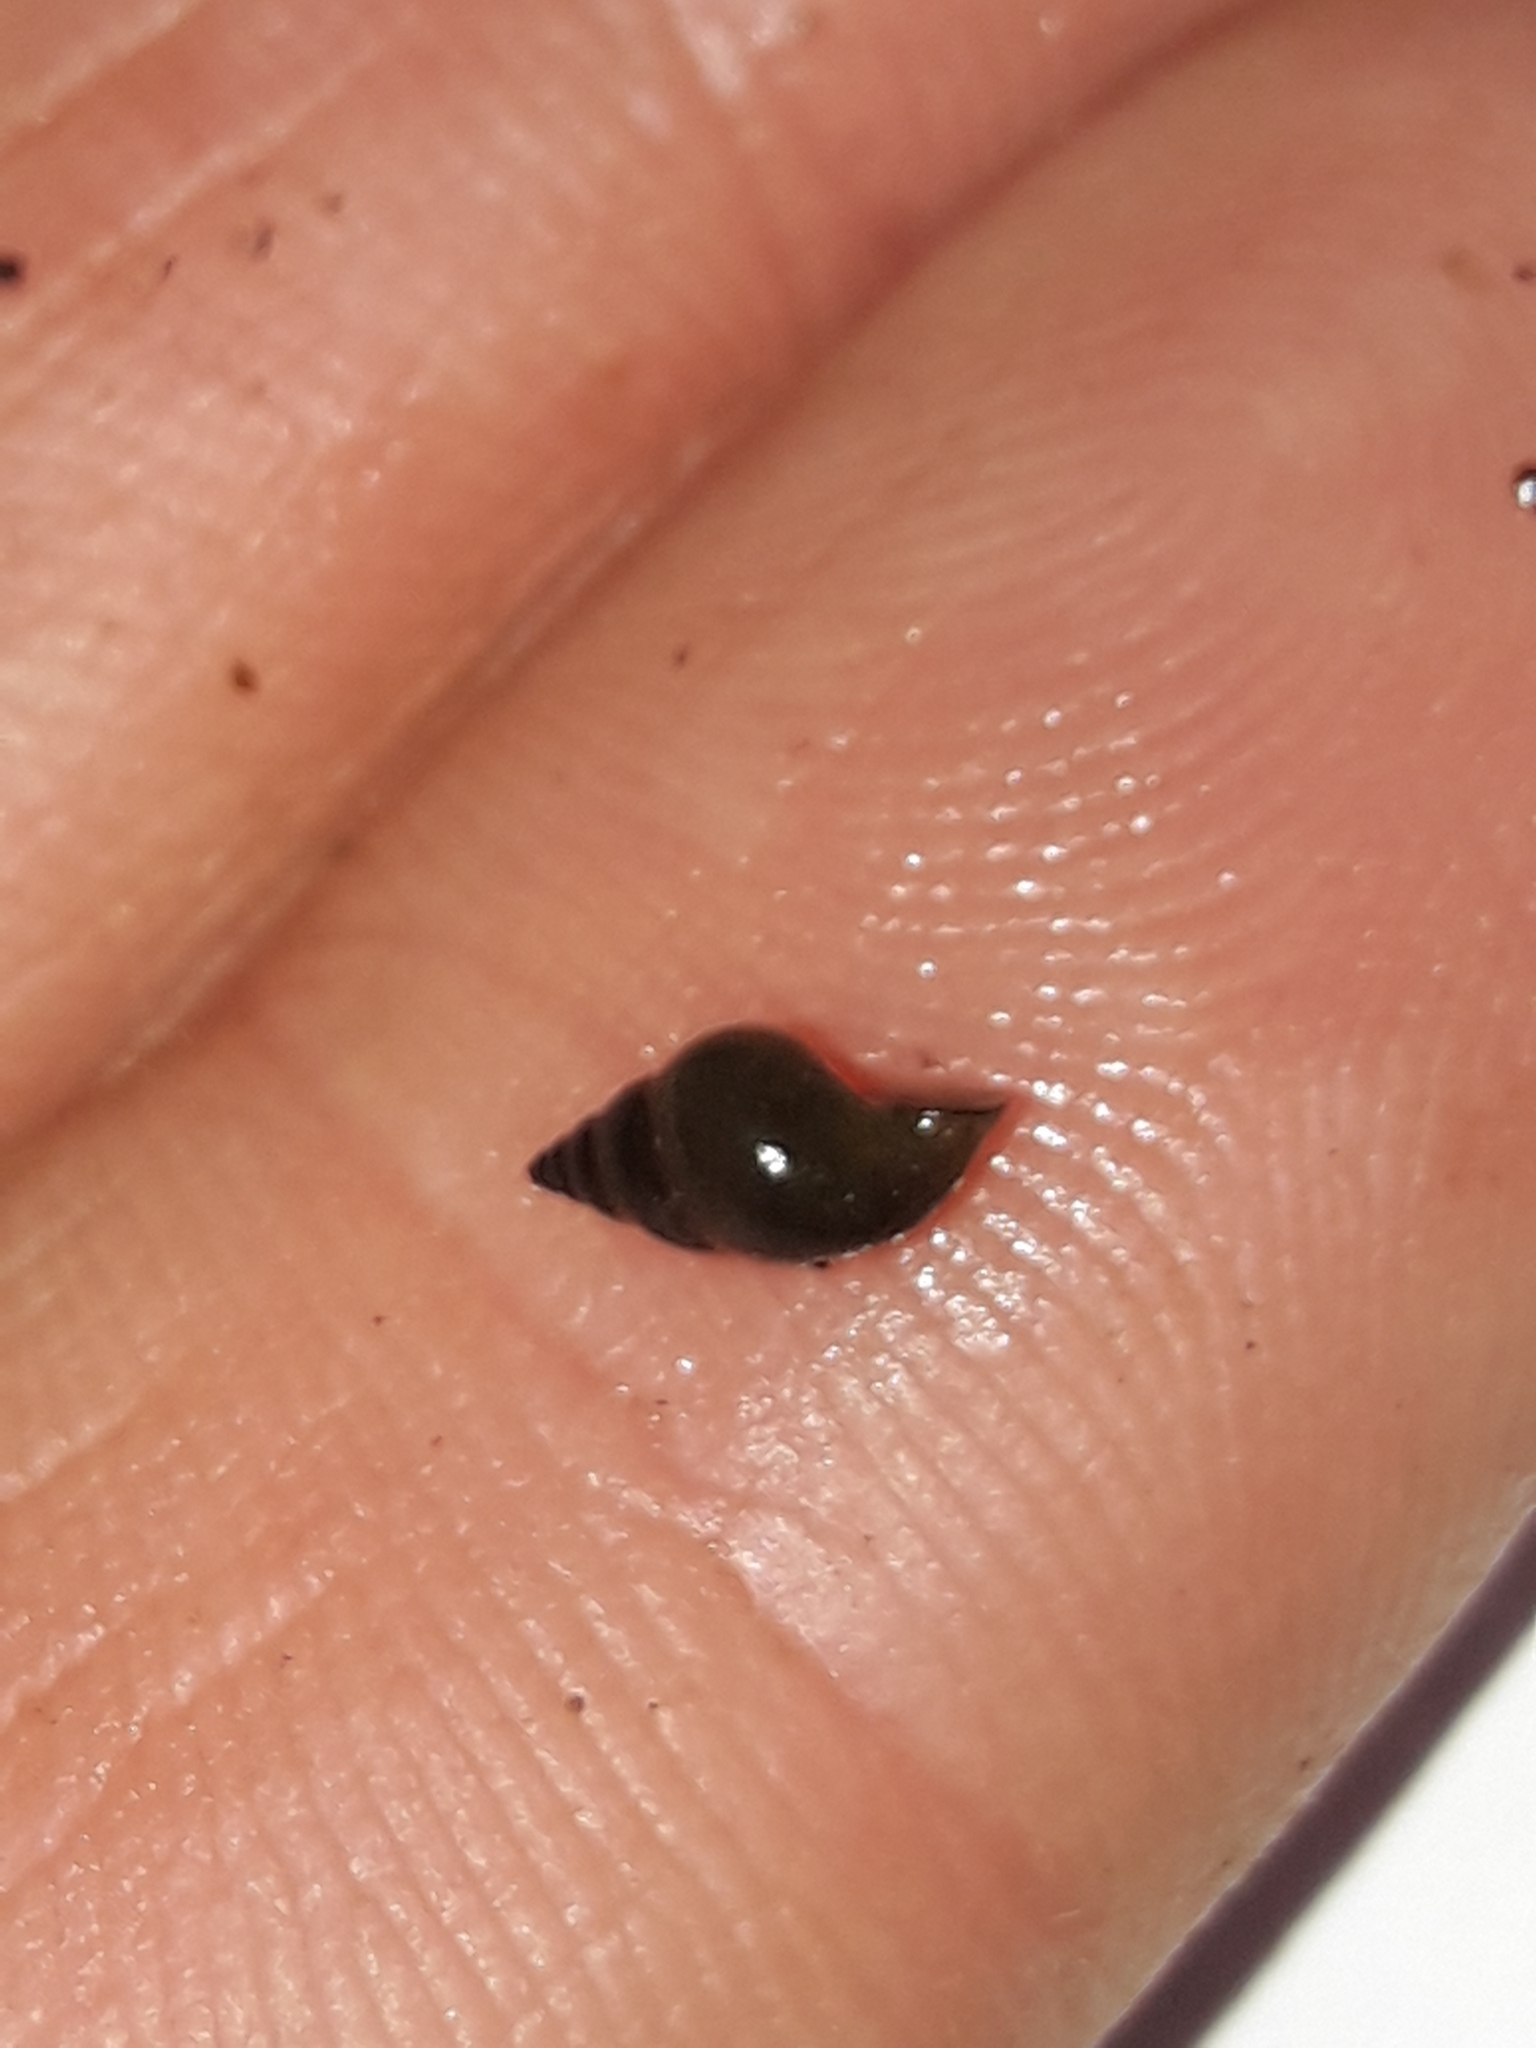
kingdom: Animalia
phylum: Mollusca
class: Gastropoda
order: Littorinimorpha
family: Tateidae
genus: Potamopyrgus
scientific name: Potamopyrgus antipodarum
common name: Jenkins' spire snail
